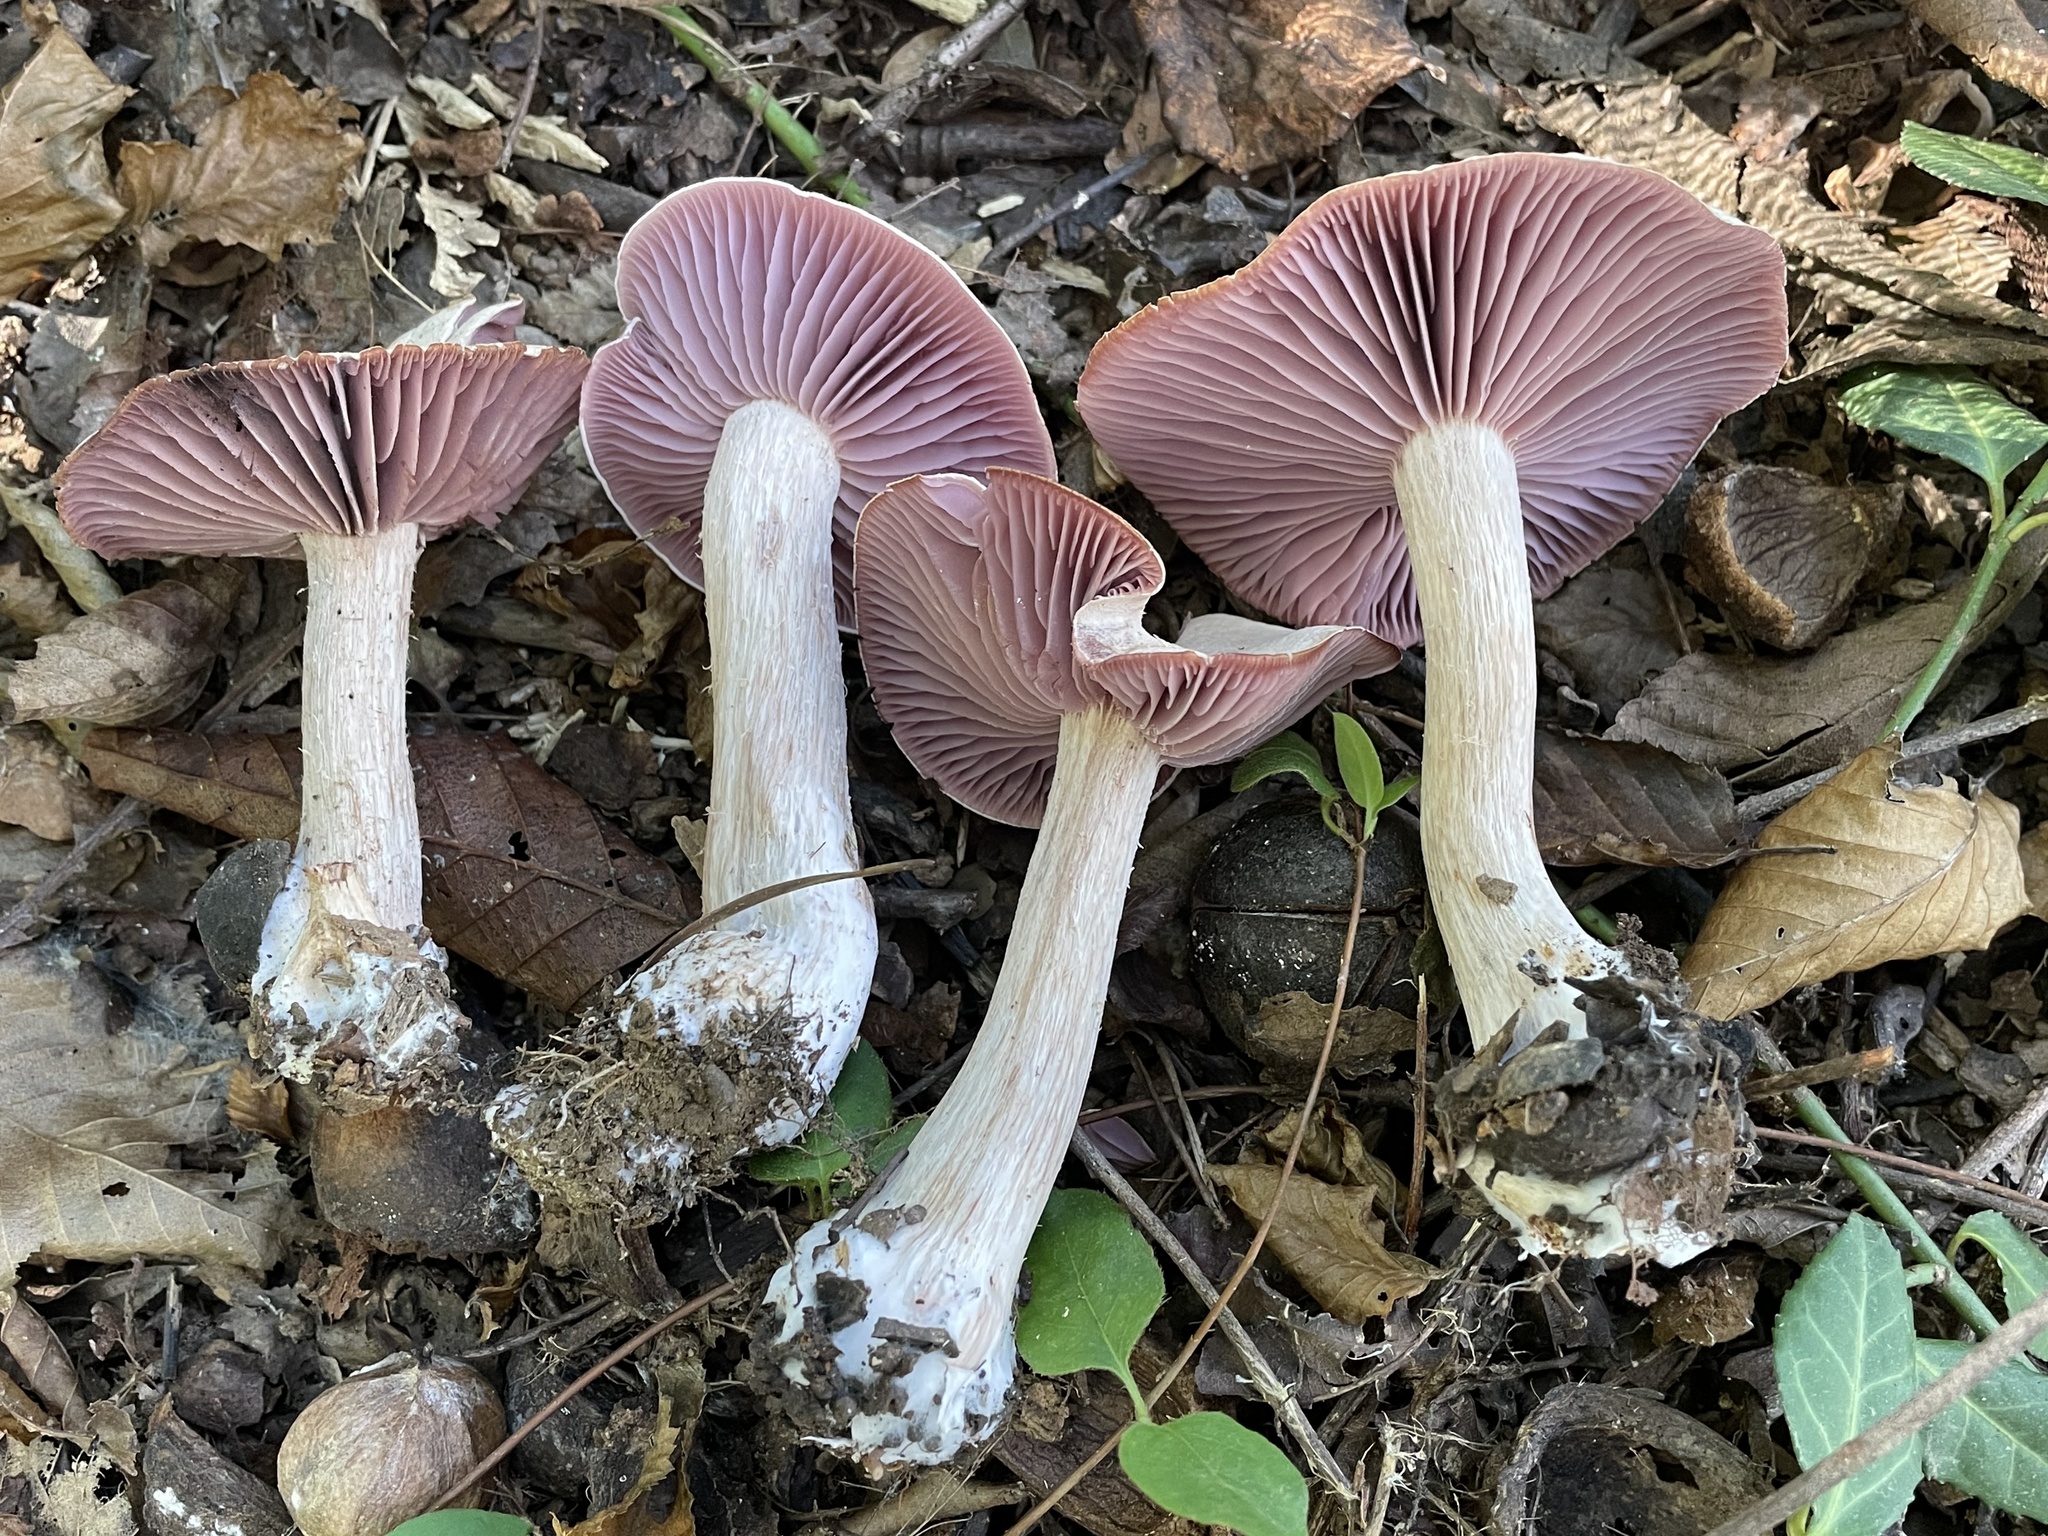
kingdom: Fungi
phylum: Basidiomycota
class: Agaricomycetes
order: Agaricales
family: Hydnangiaceae
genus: Laccaria
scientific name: Laccaria ochropurpurea
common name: Purple laccaria
